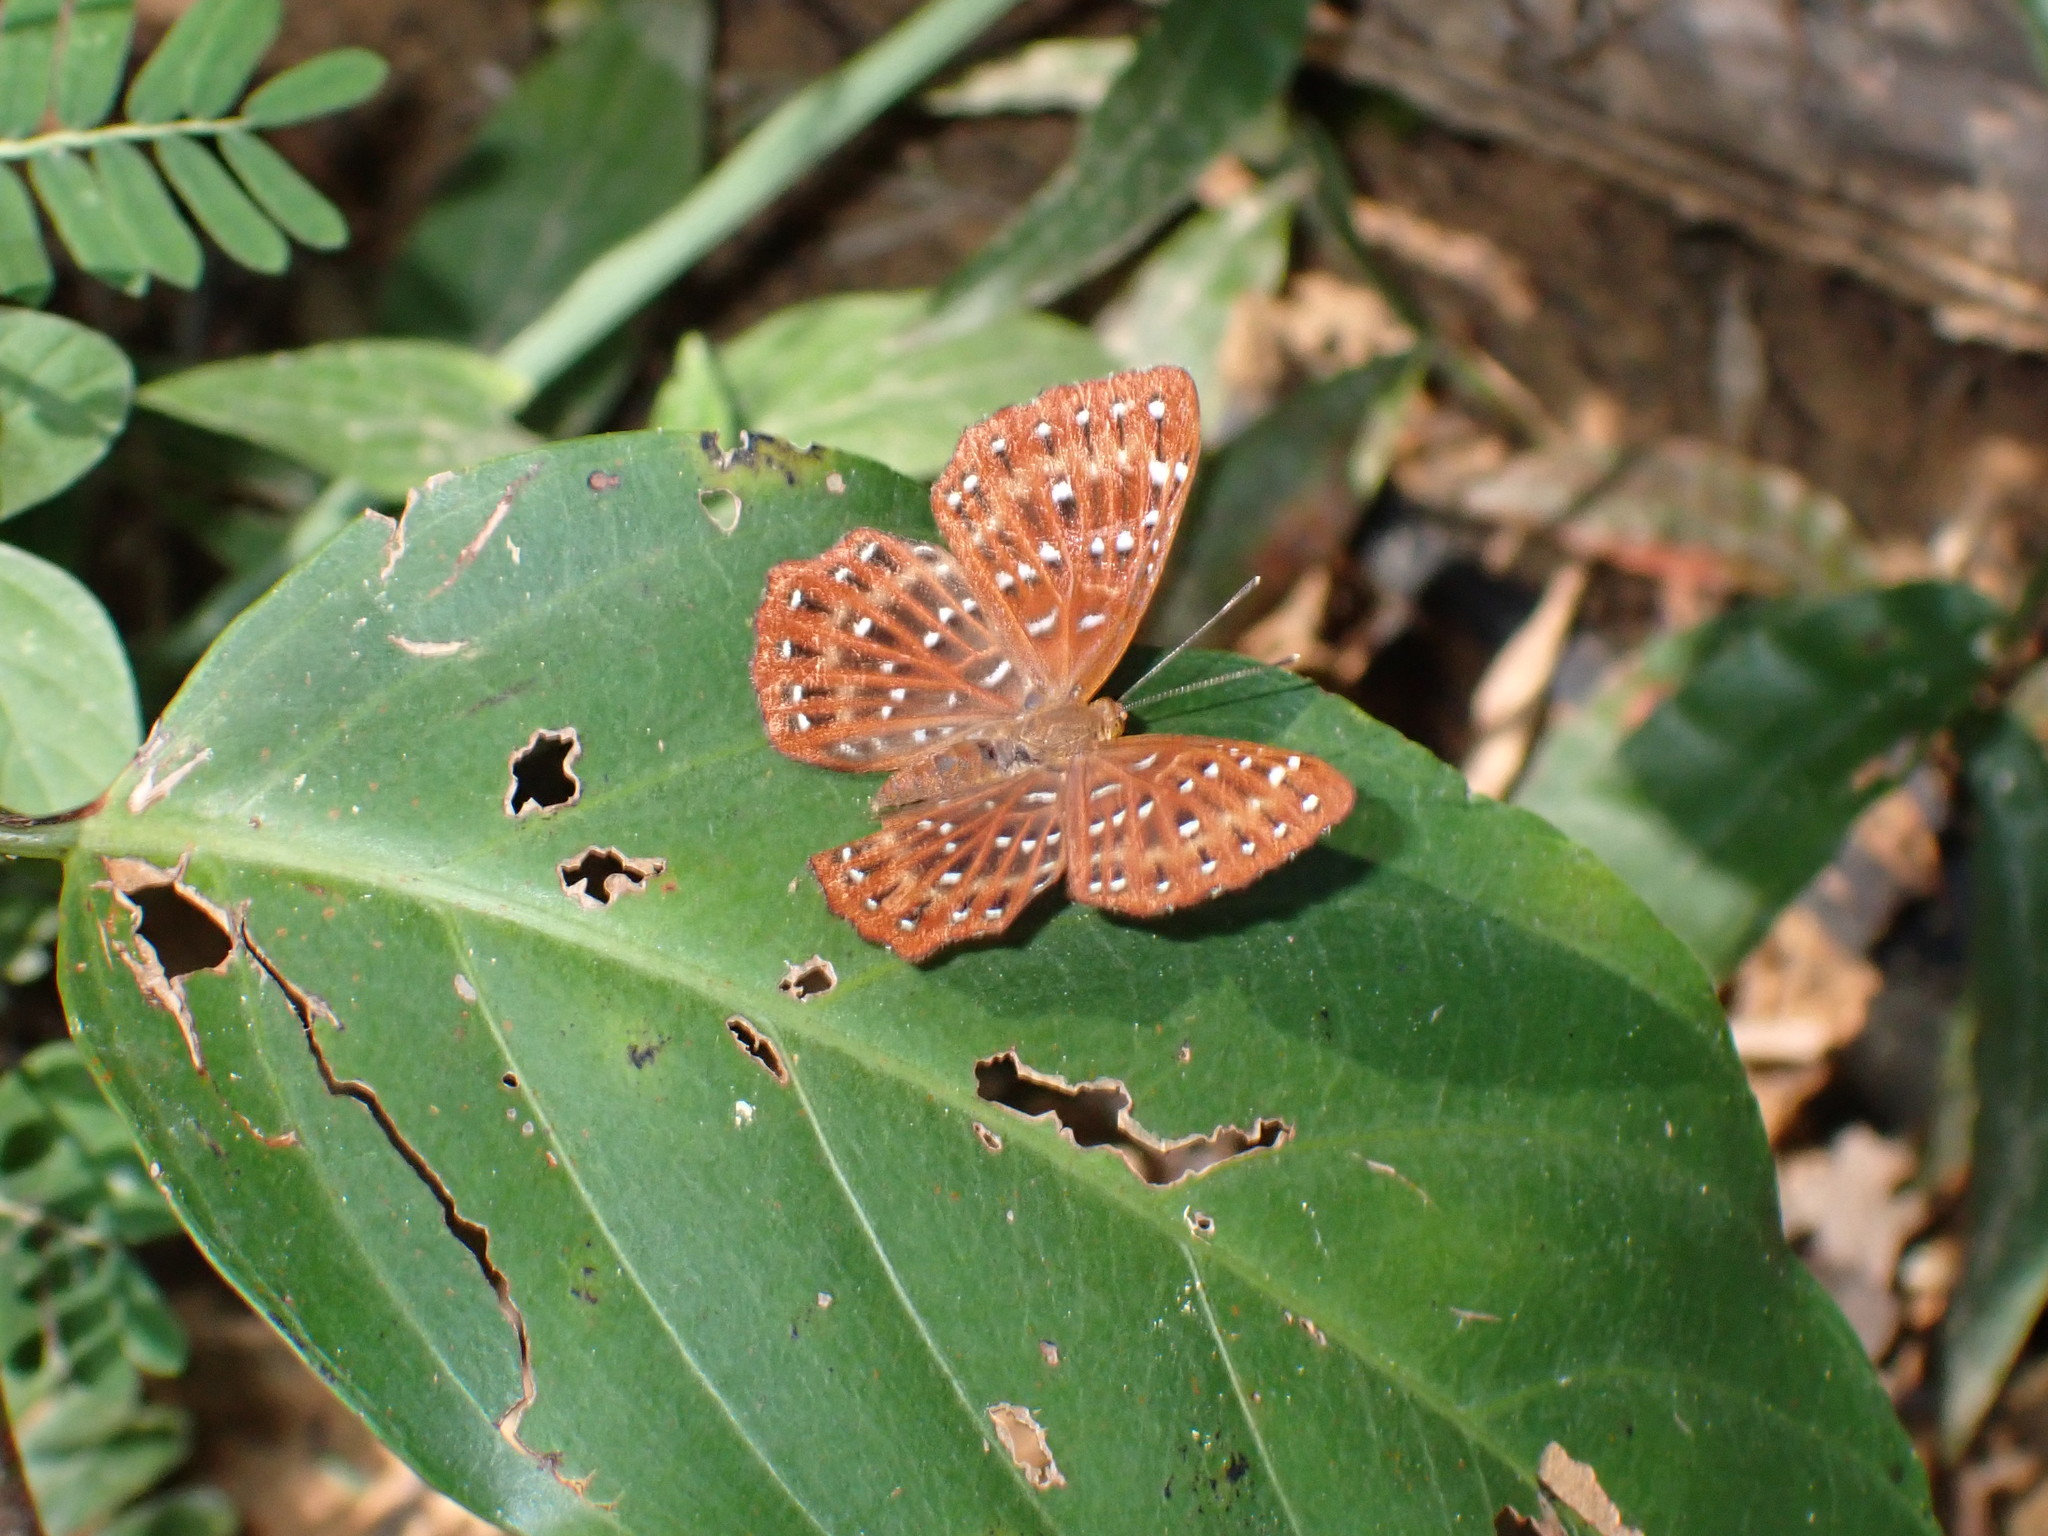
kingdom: Animalia
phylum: Arthropoda
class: Insecta
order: Lepidoptera
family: Riodinidae
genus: Zemeros
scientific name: Zemeros flegyas
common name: Punchinello
